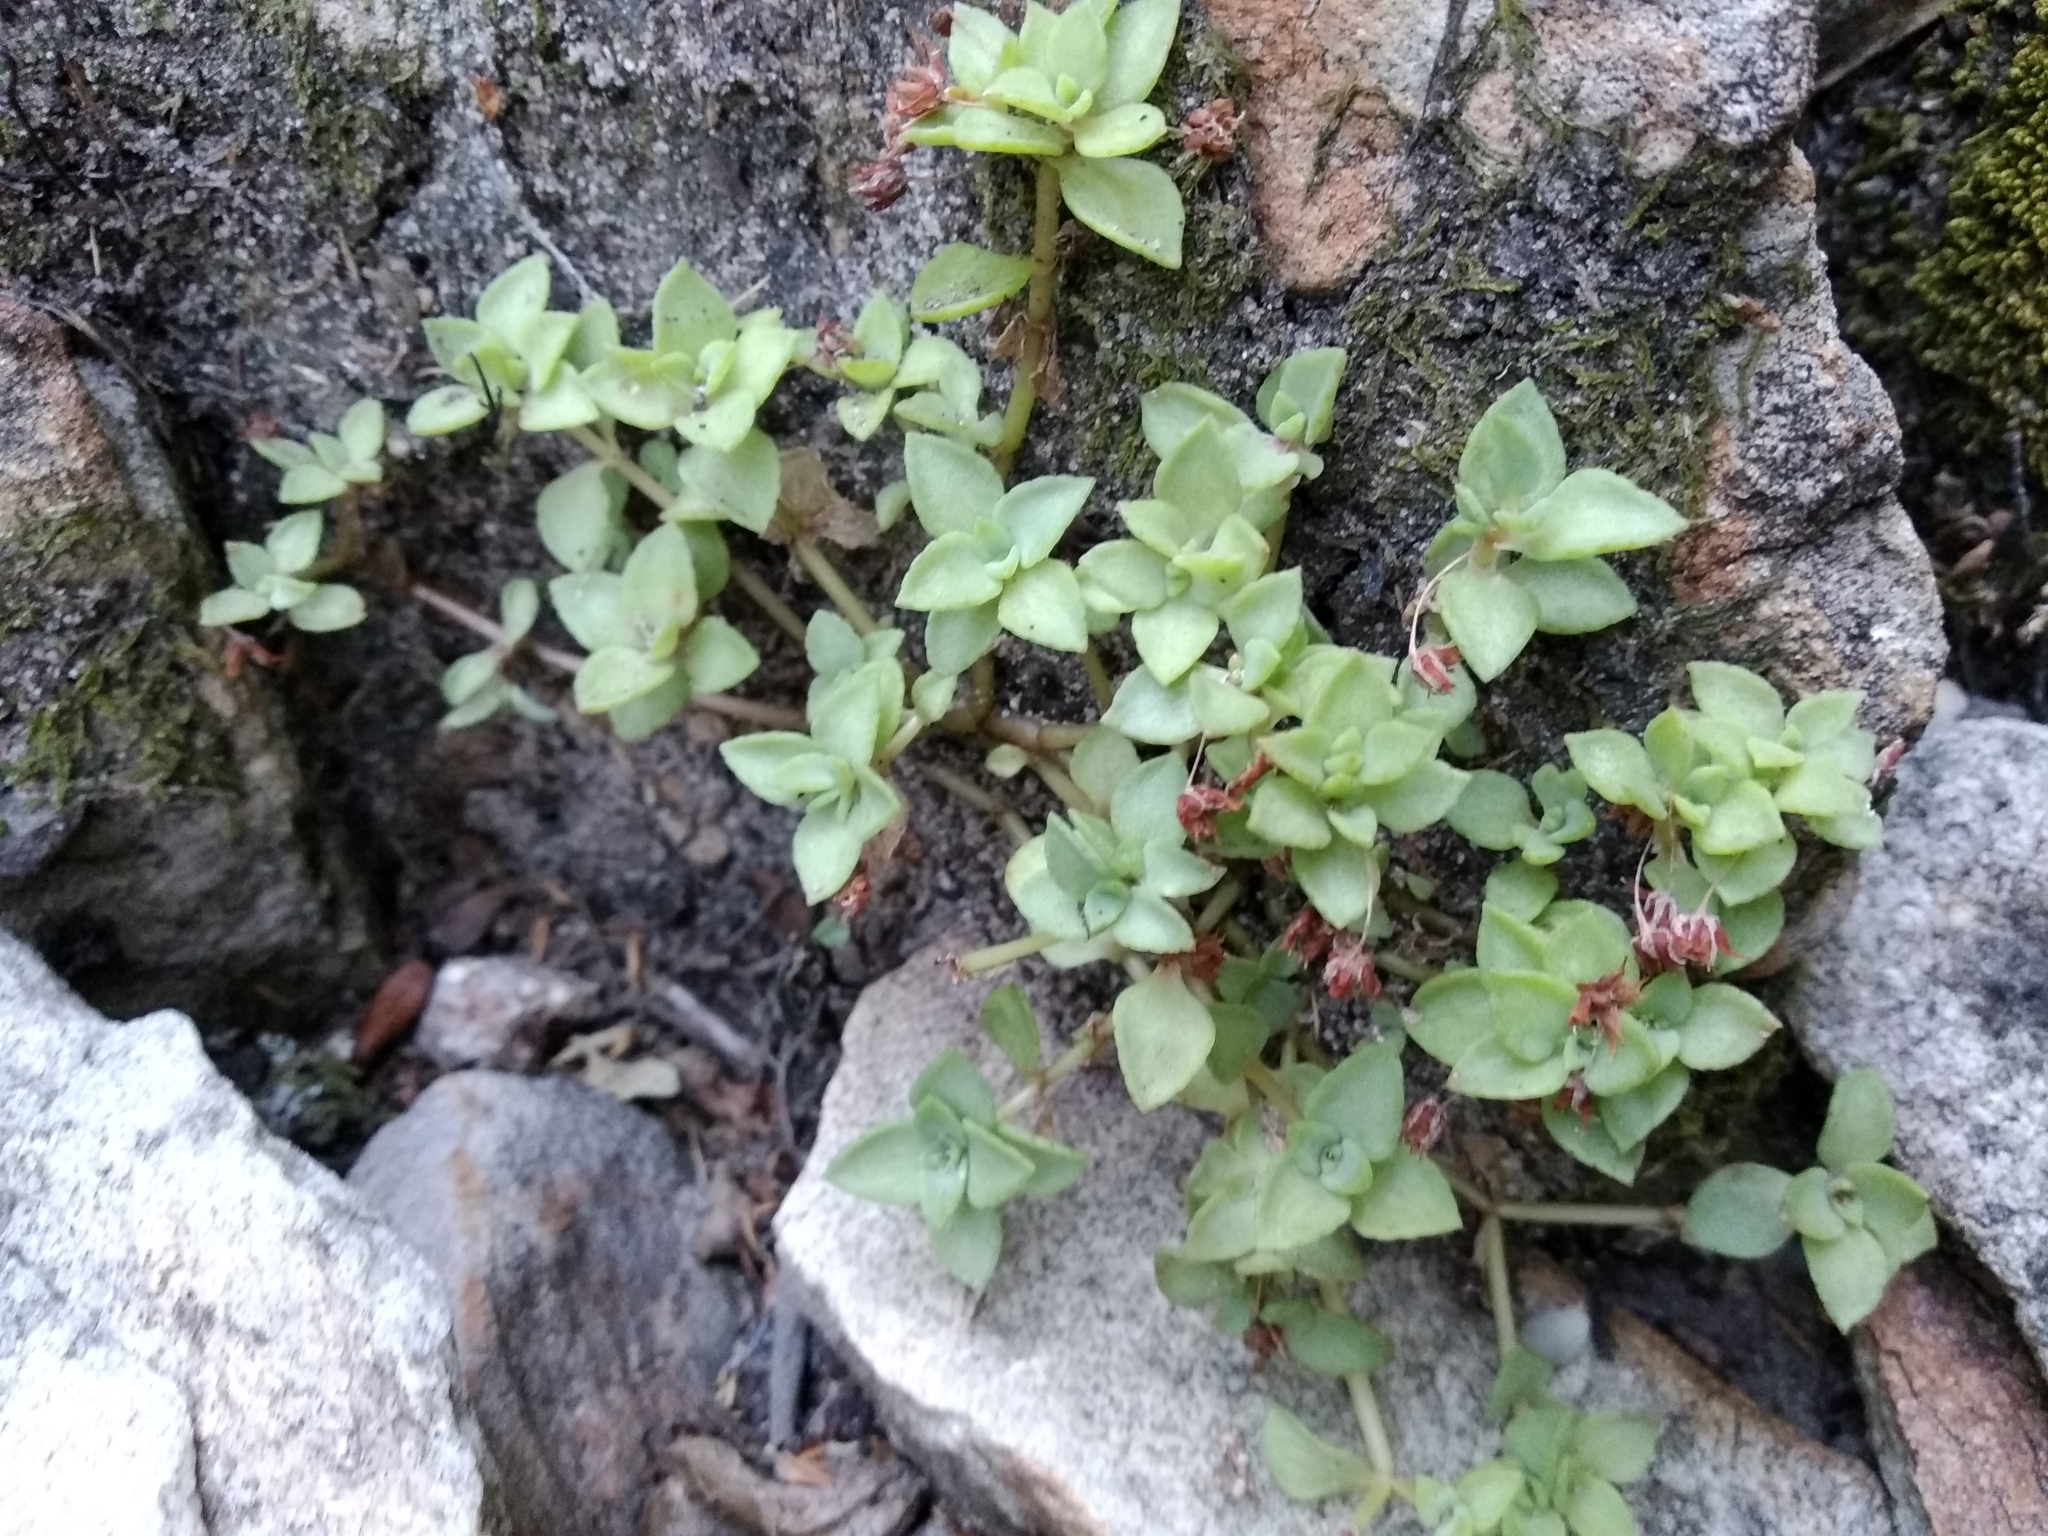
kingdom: Plantae
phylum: Tracheophyta
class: Magnoliopsida
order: Saxifragales
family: Crassulaceae
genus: Crassula
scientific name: Crassula pellucida
